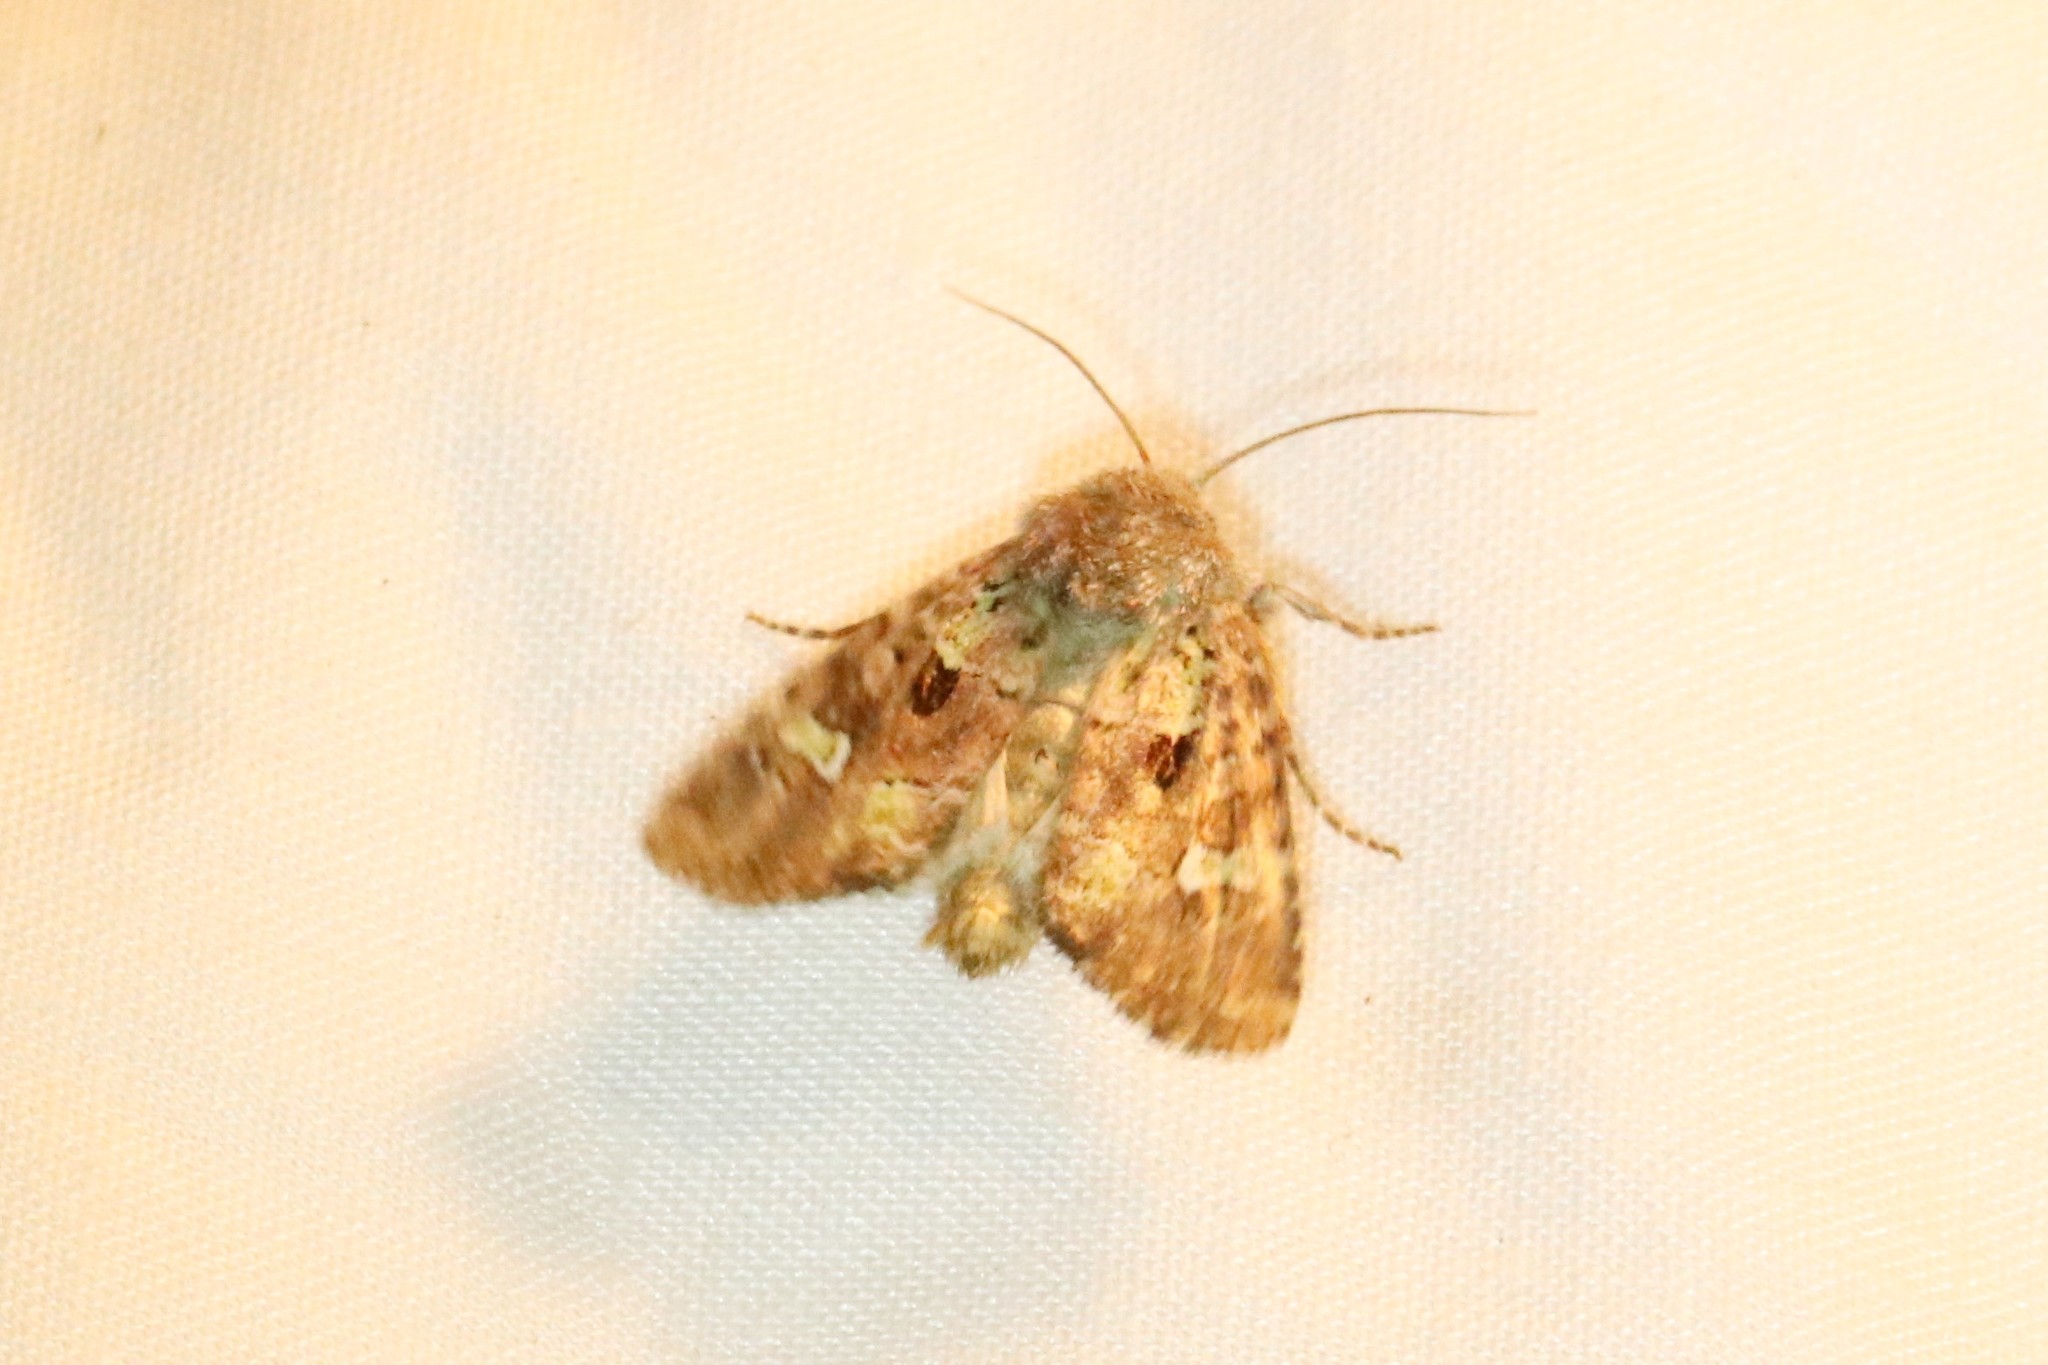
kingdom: Animalia
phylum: Arthropoda
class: Insecta
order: Lepidoptera
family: Noctuidae
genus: Lacinipolia
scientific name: Lacinipolia renigera
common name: Kidney-spotted minor
